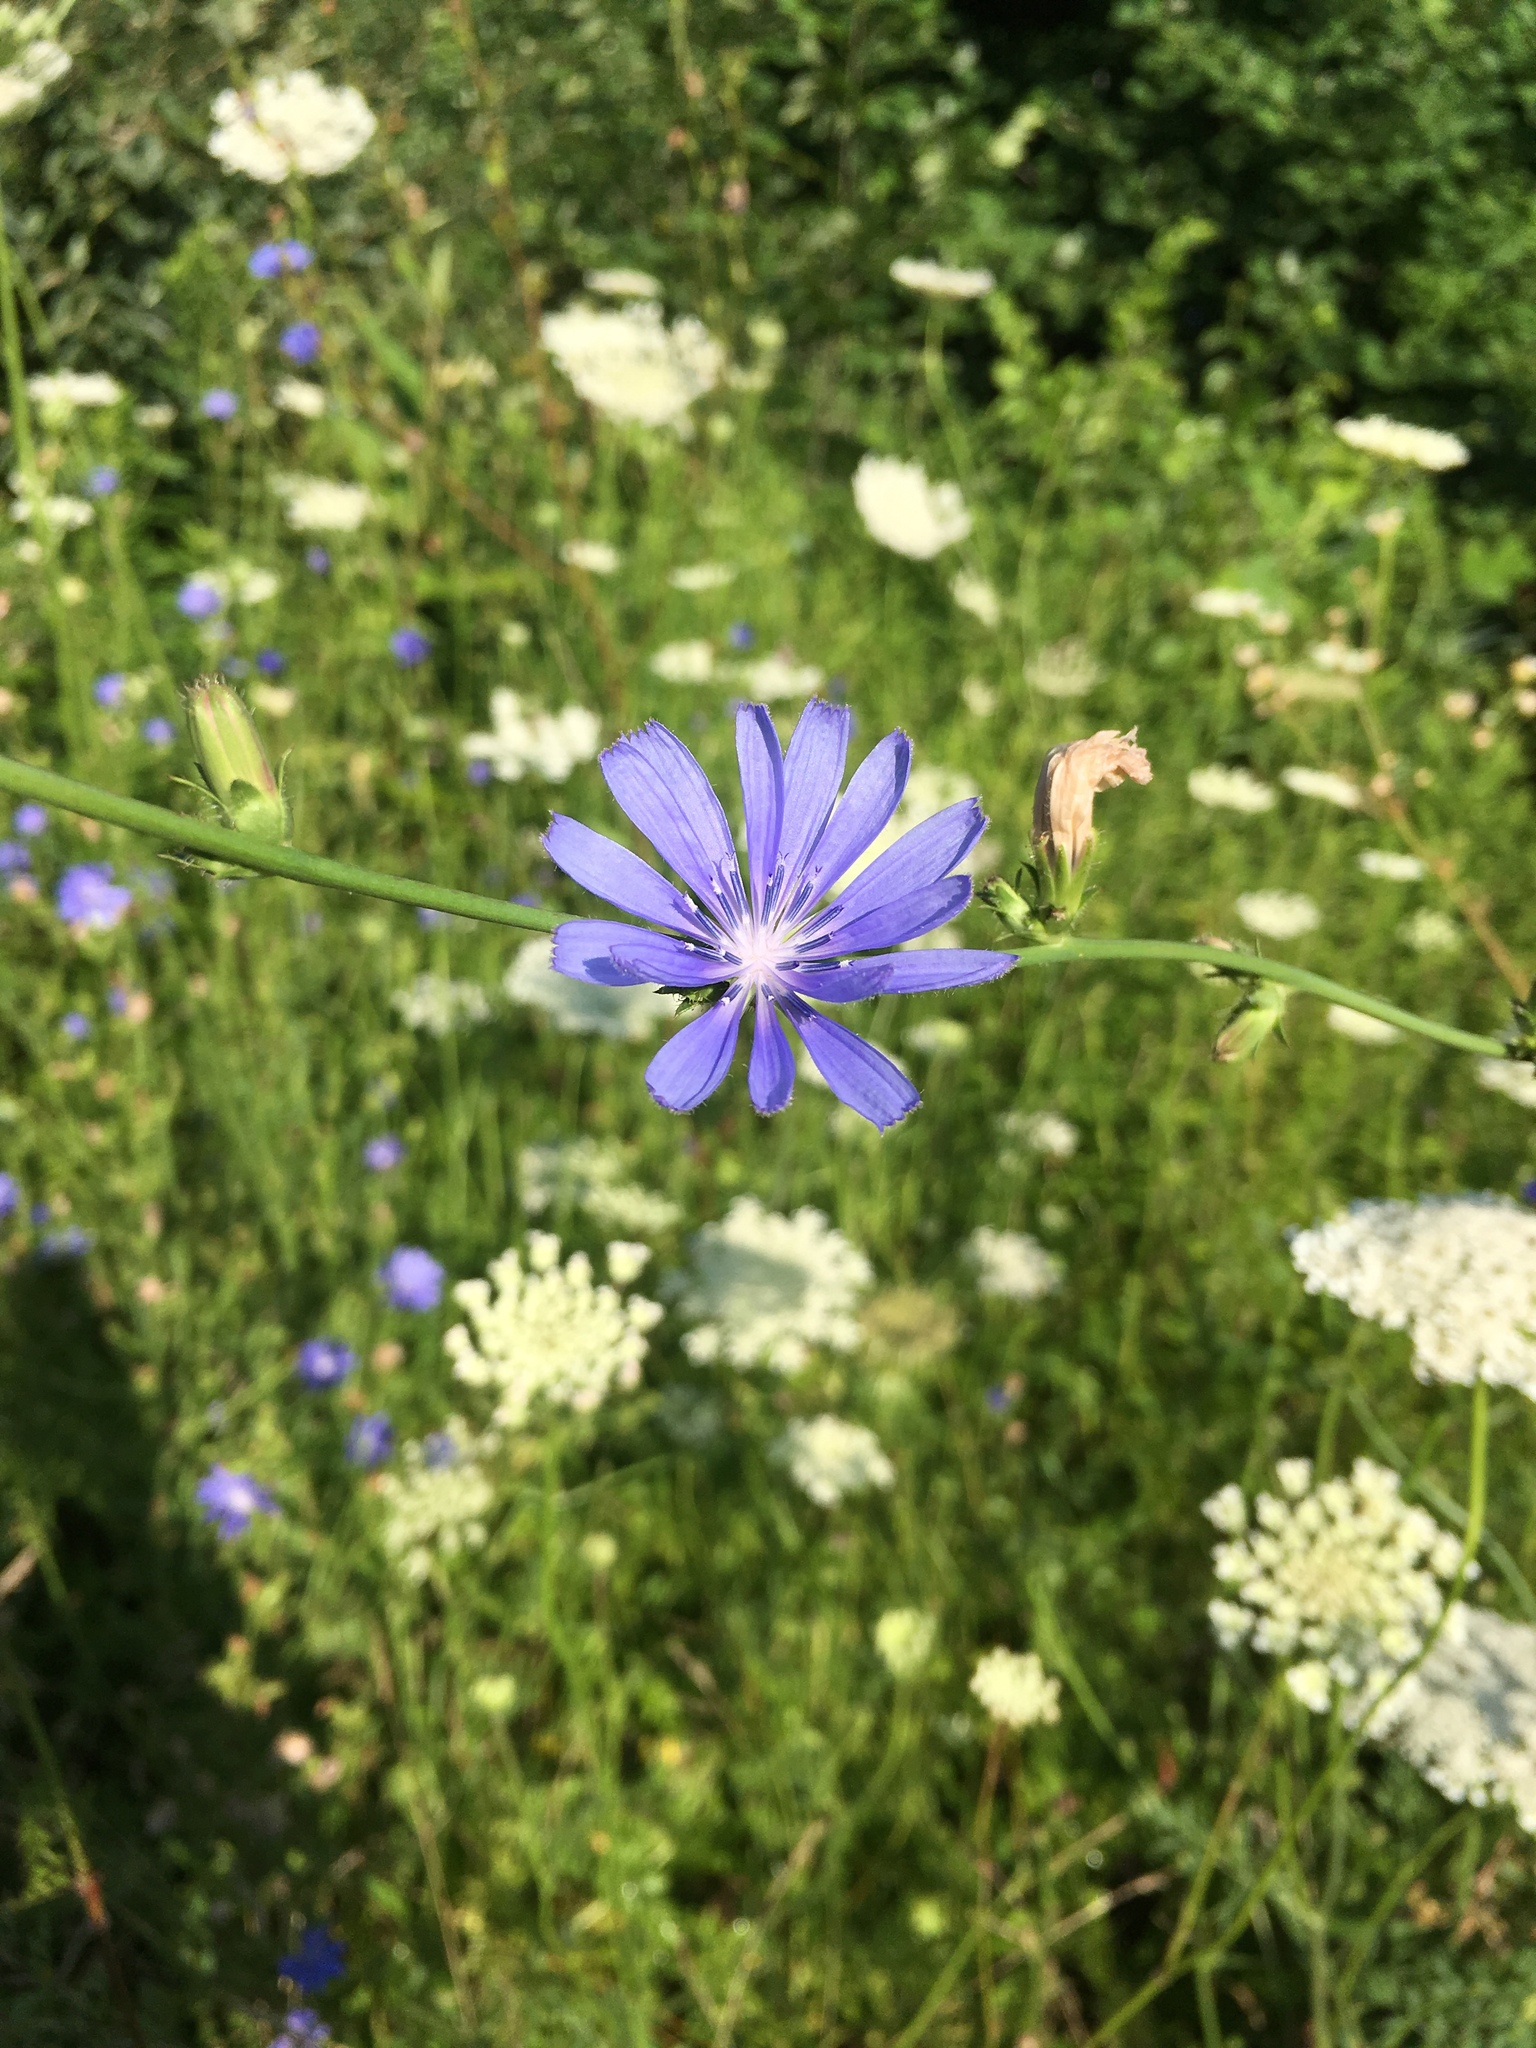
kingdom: Plantae
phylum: Tracheophyta
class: Magnoliopsida
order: Asterales
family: Asteraceae
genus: Cichorium
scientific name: Cichorium intybus
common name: Chicory
